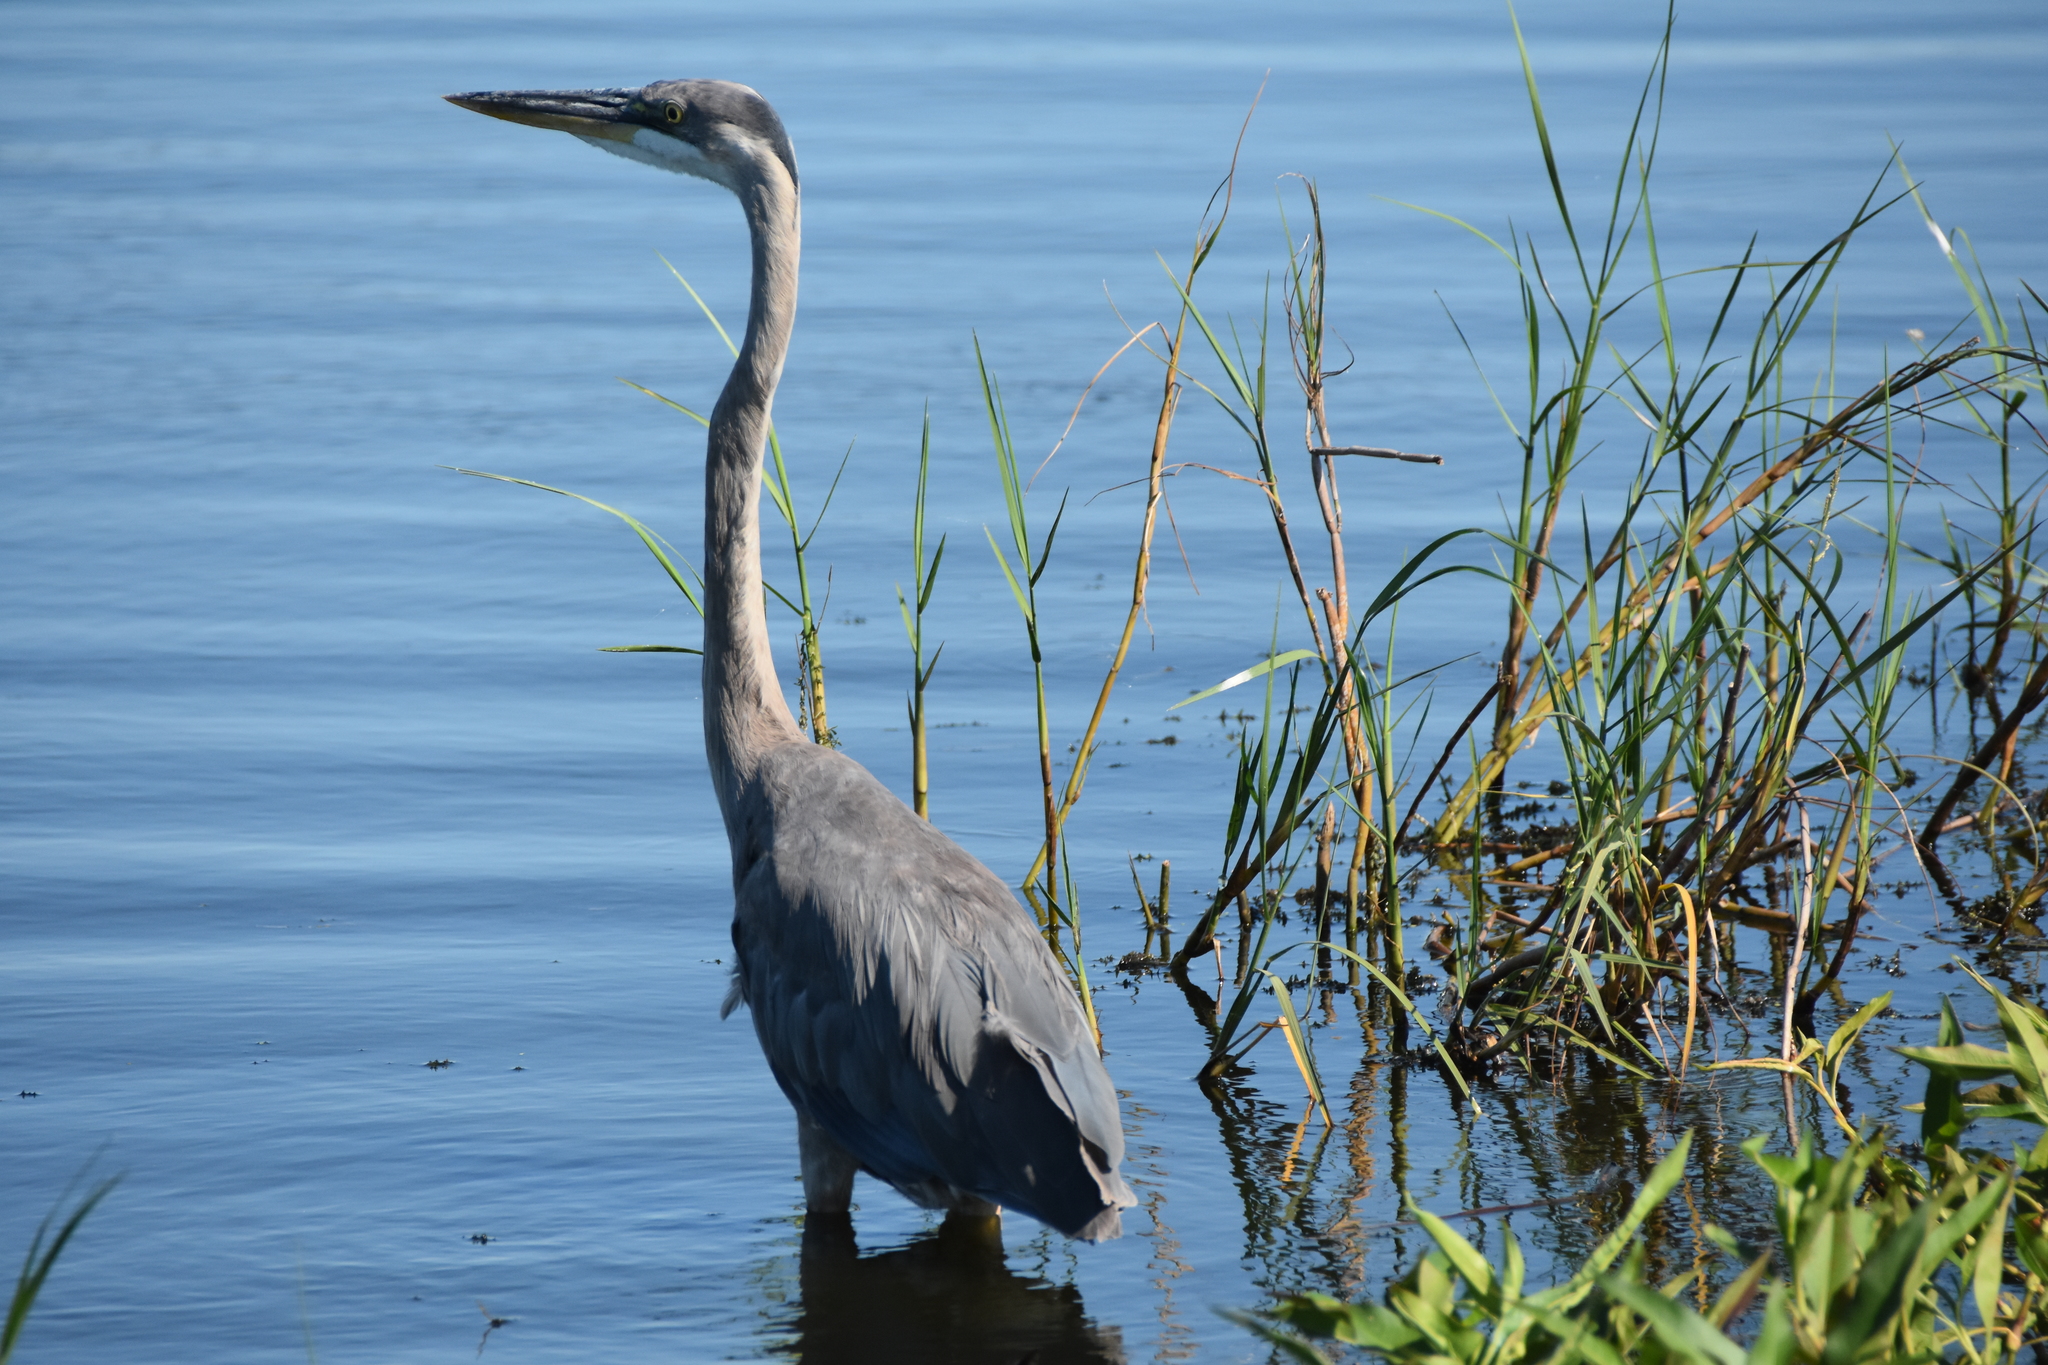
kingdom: Animalia
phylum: Chordata
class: Aves
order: Pelecaniformes
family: Ardeidae
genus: Ardea
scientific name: Ardea herodias
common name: Great blue heron
